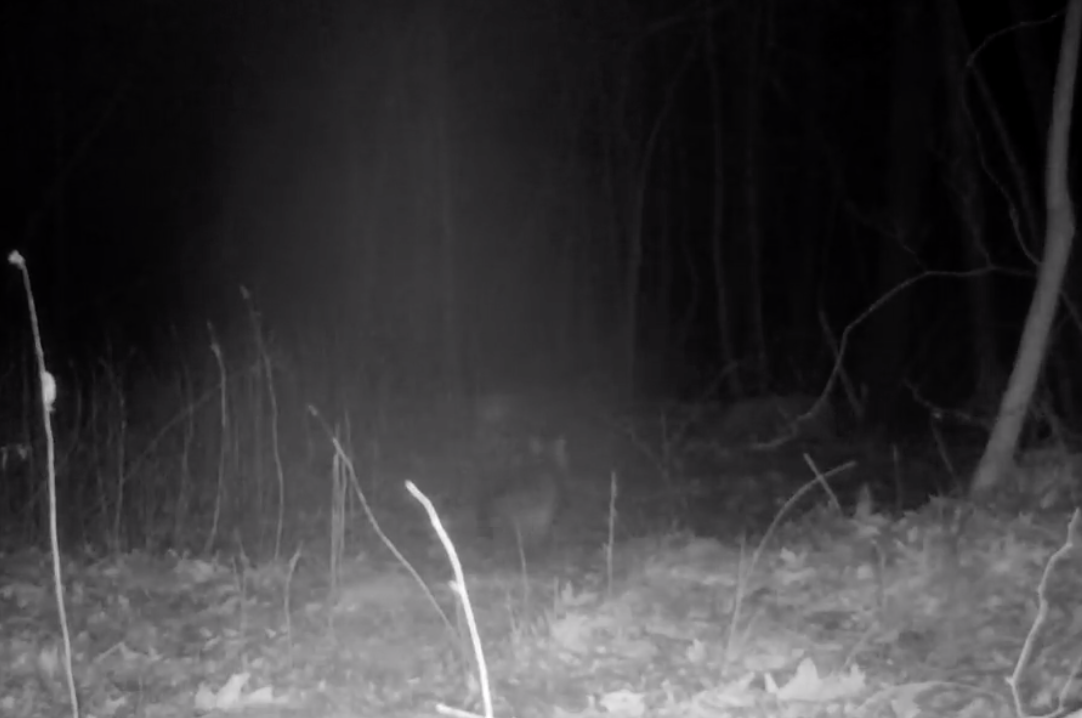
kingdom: Animalia
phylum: Chordata
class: Mammalia
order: Carnivora
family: Canidae
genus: Urocyon
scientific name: Urocyon cinereoargenteus
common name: Gray fox
